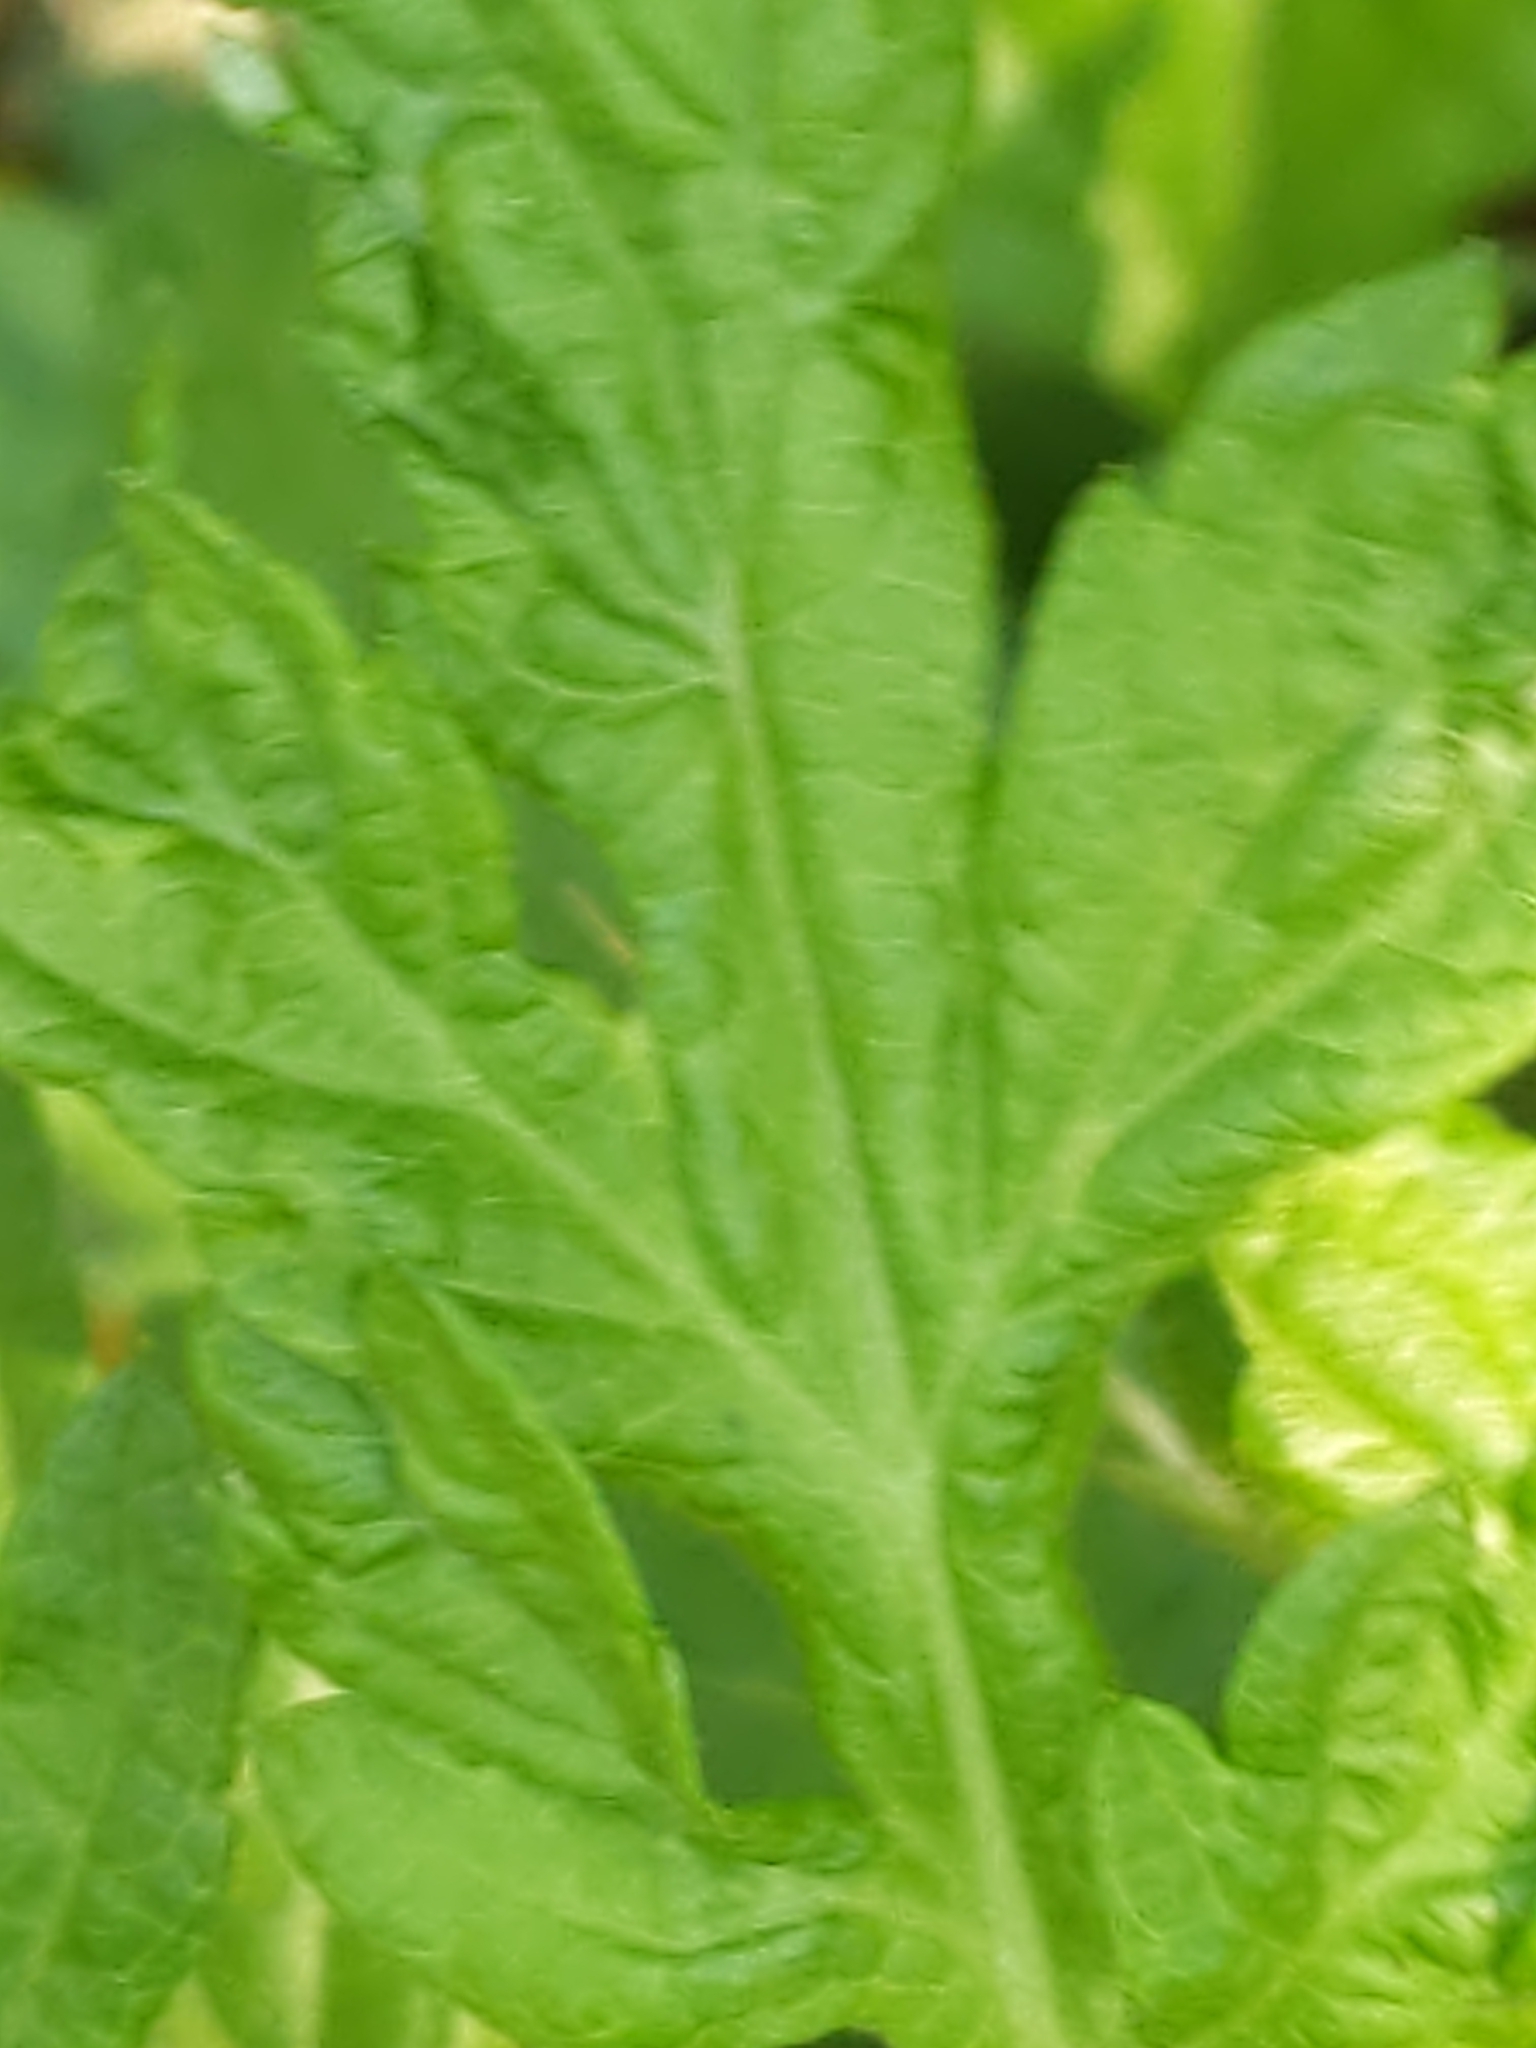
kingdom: Plantae
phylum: Tracheophyta
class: Magnoliopsida
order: Asterales
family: Asteraceae
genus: Artemisia
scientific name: Artemisia vulgaris
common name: Mugwort
